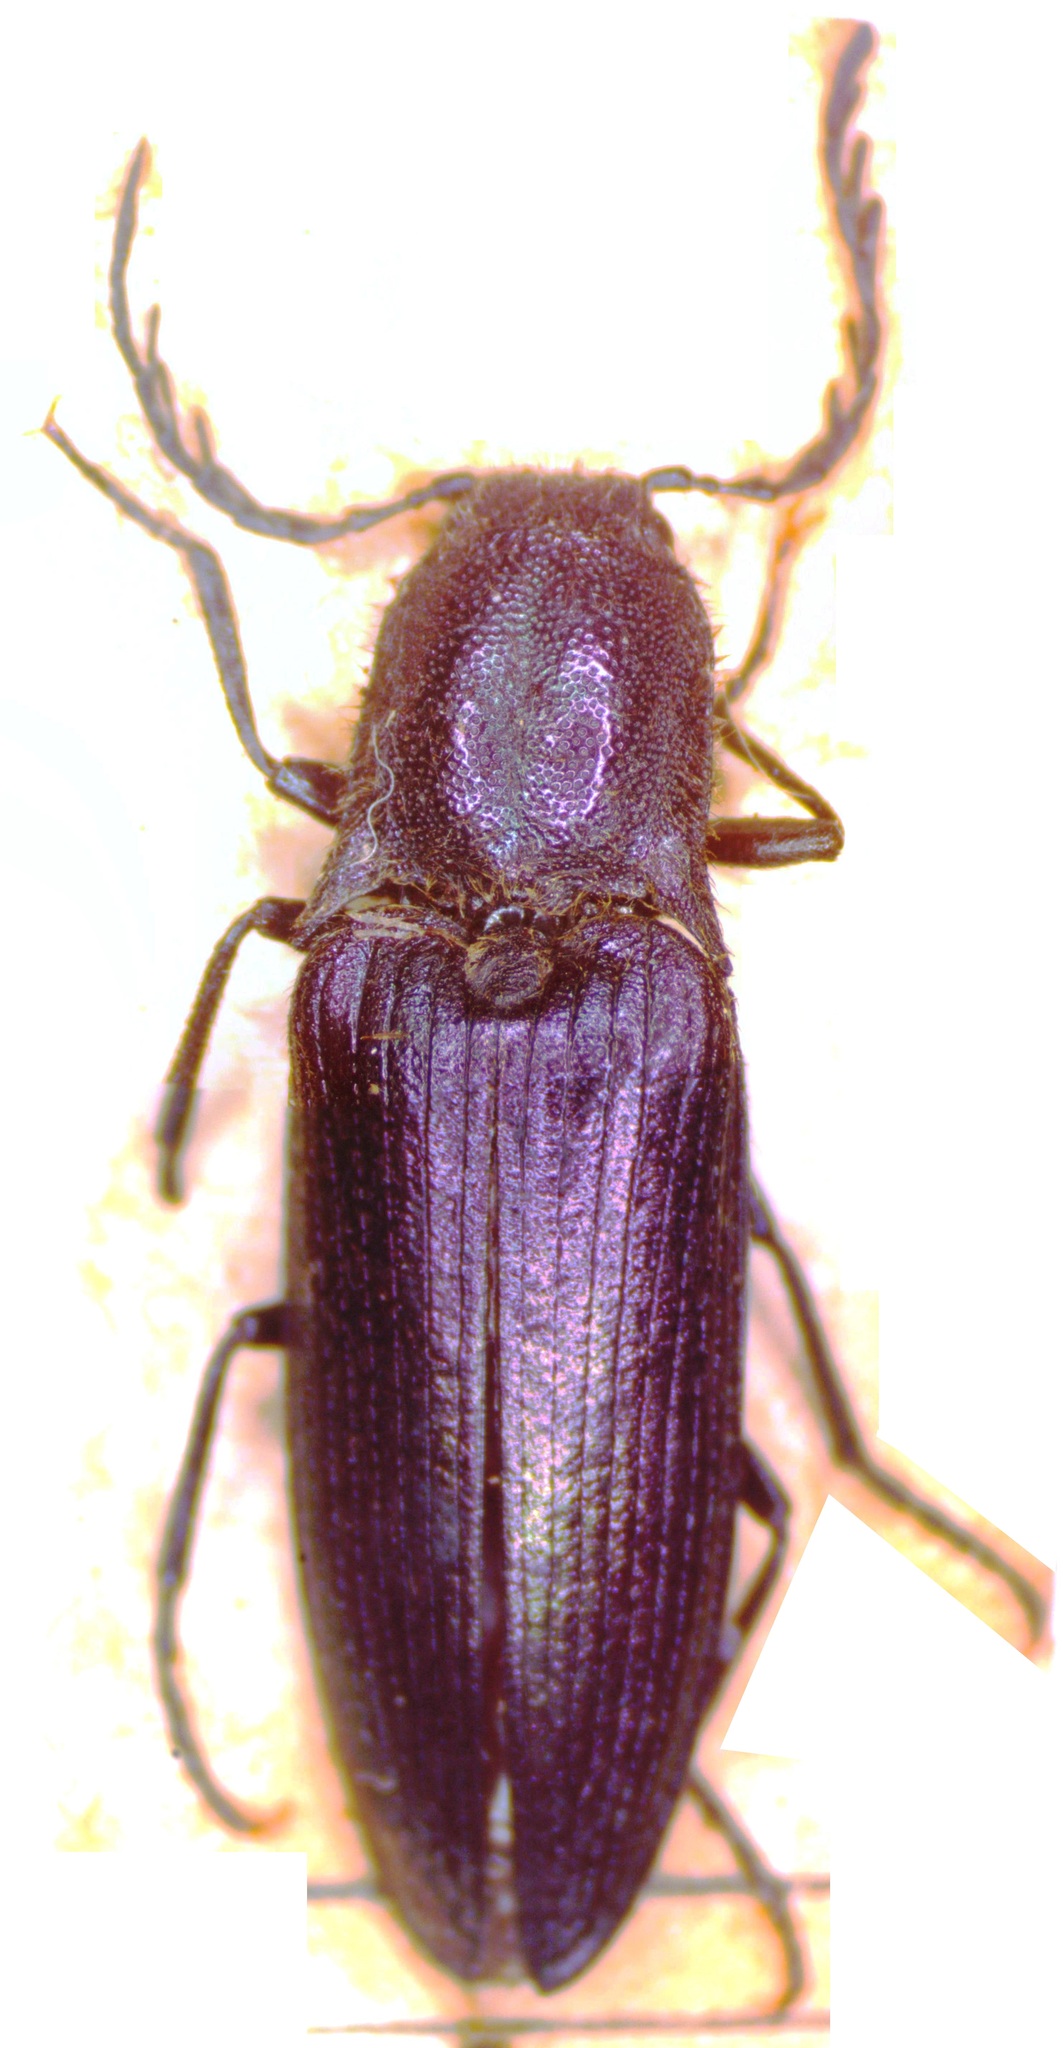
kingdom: Animalia
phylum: Arthropoda
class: Insecta
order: Coleoptera
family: Elateridae
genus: Ctenicera
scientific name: Ctenicera cuprea
